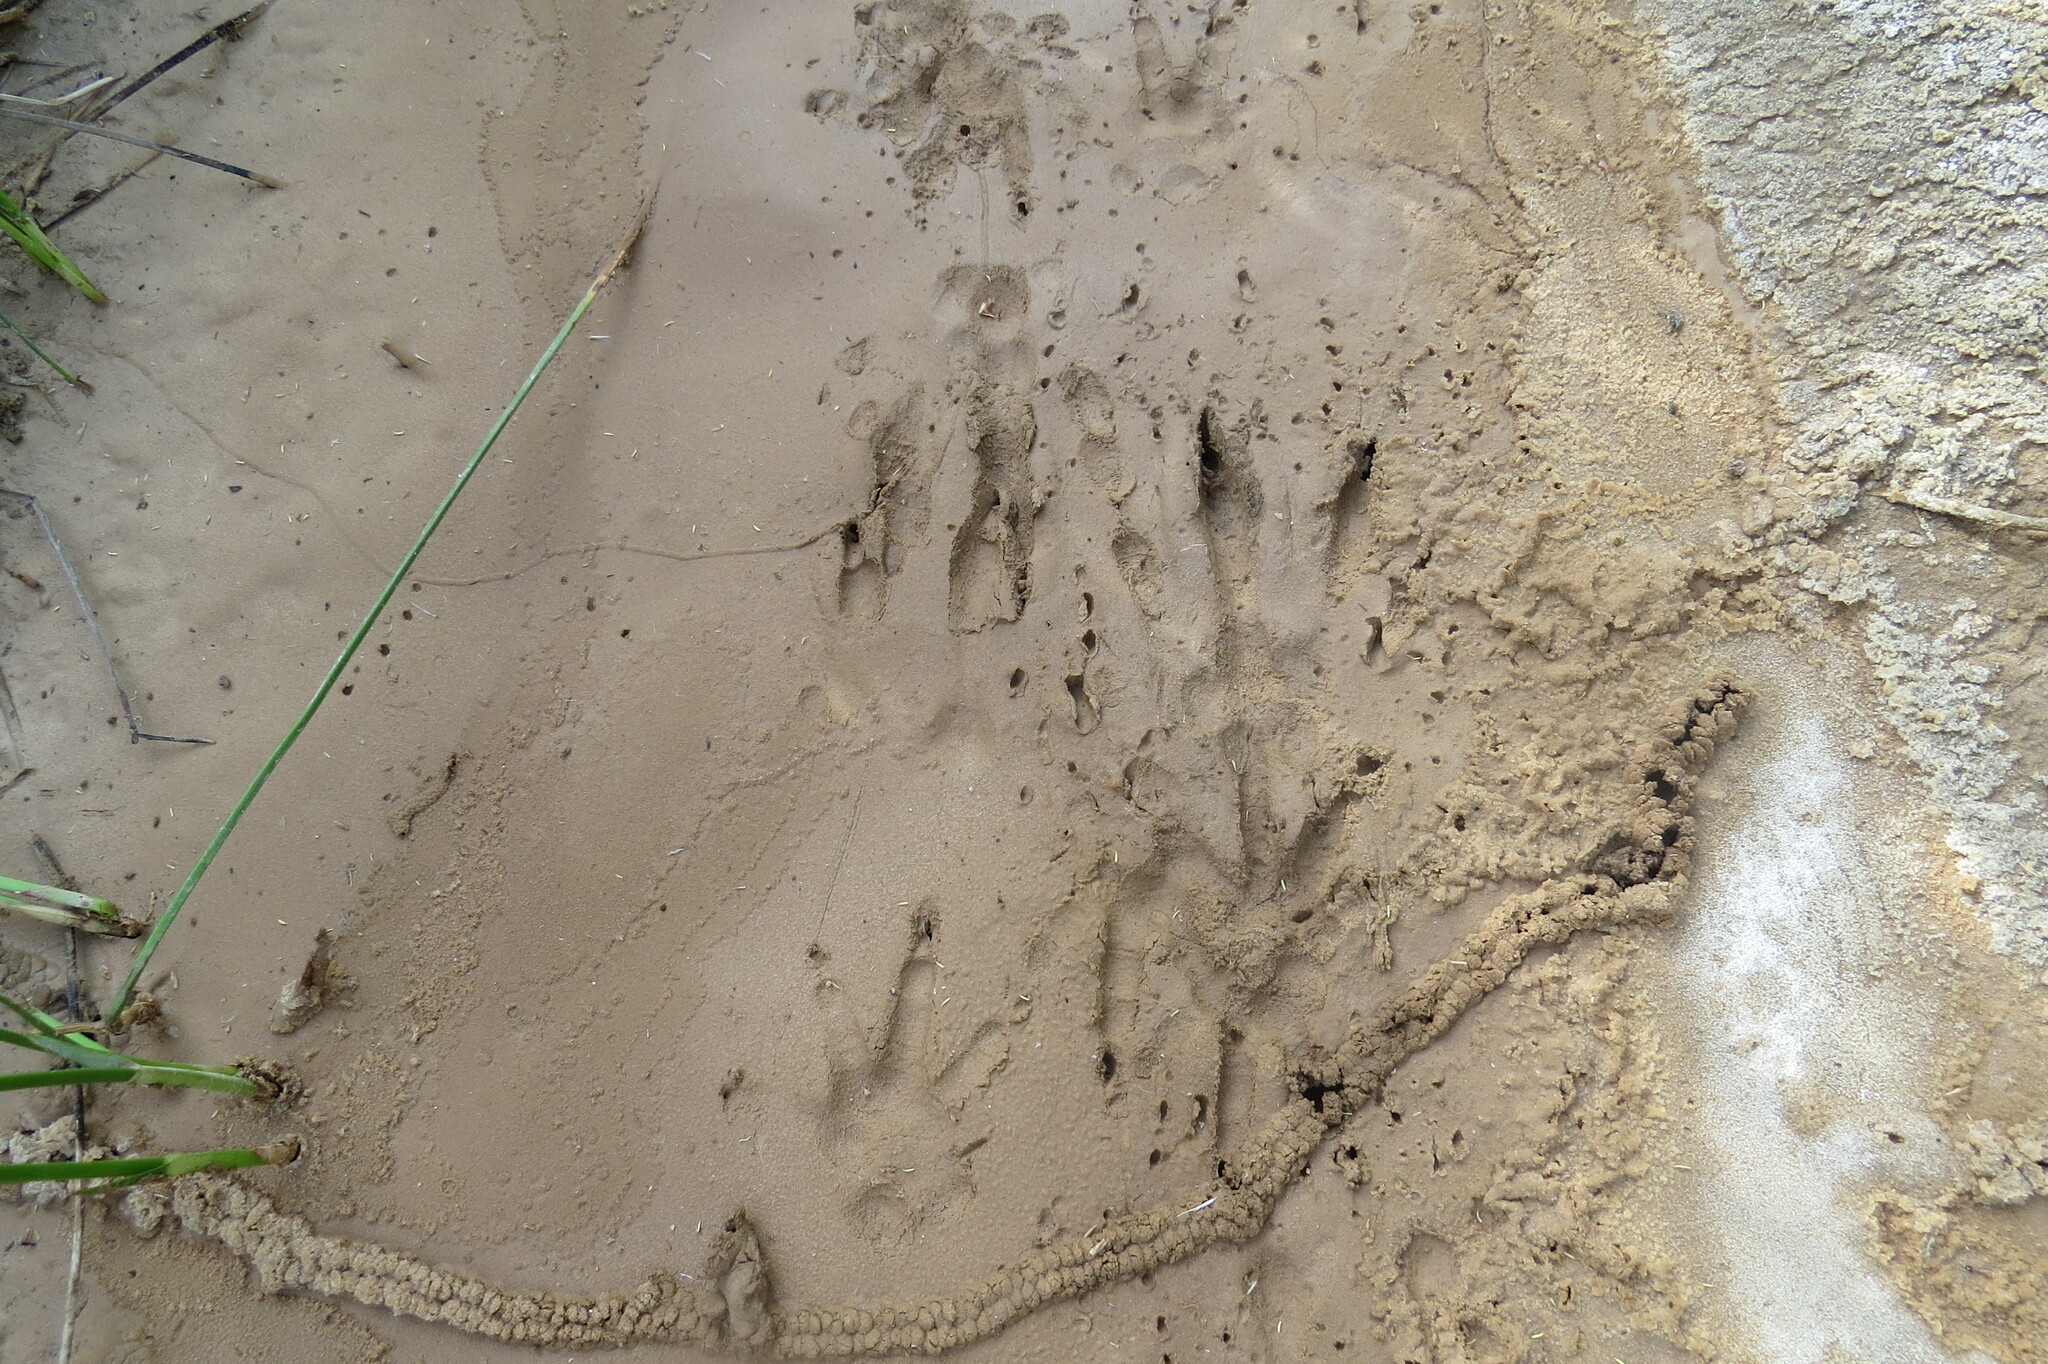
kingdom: Animalia
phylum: Chordata
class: Mammalia
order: Rodentia
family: Myocastoridae
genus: Myocastor
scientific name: Myocastor coypus
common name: Coypu
